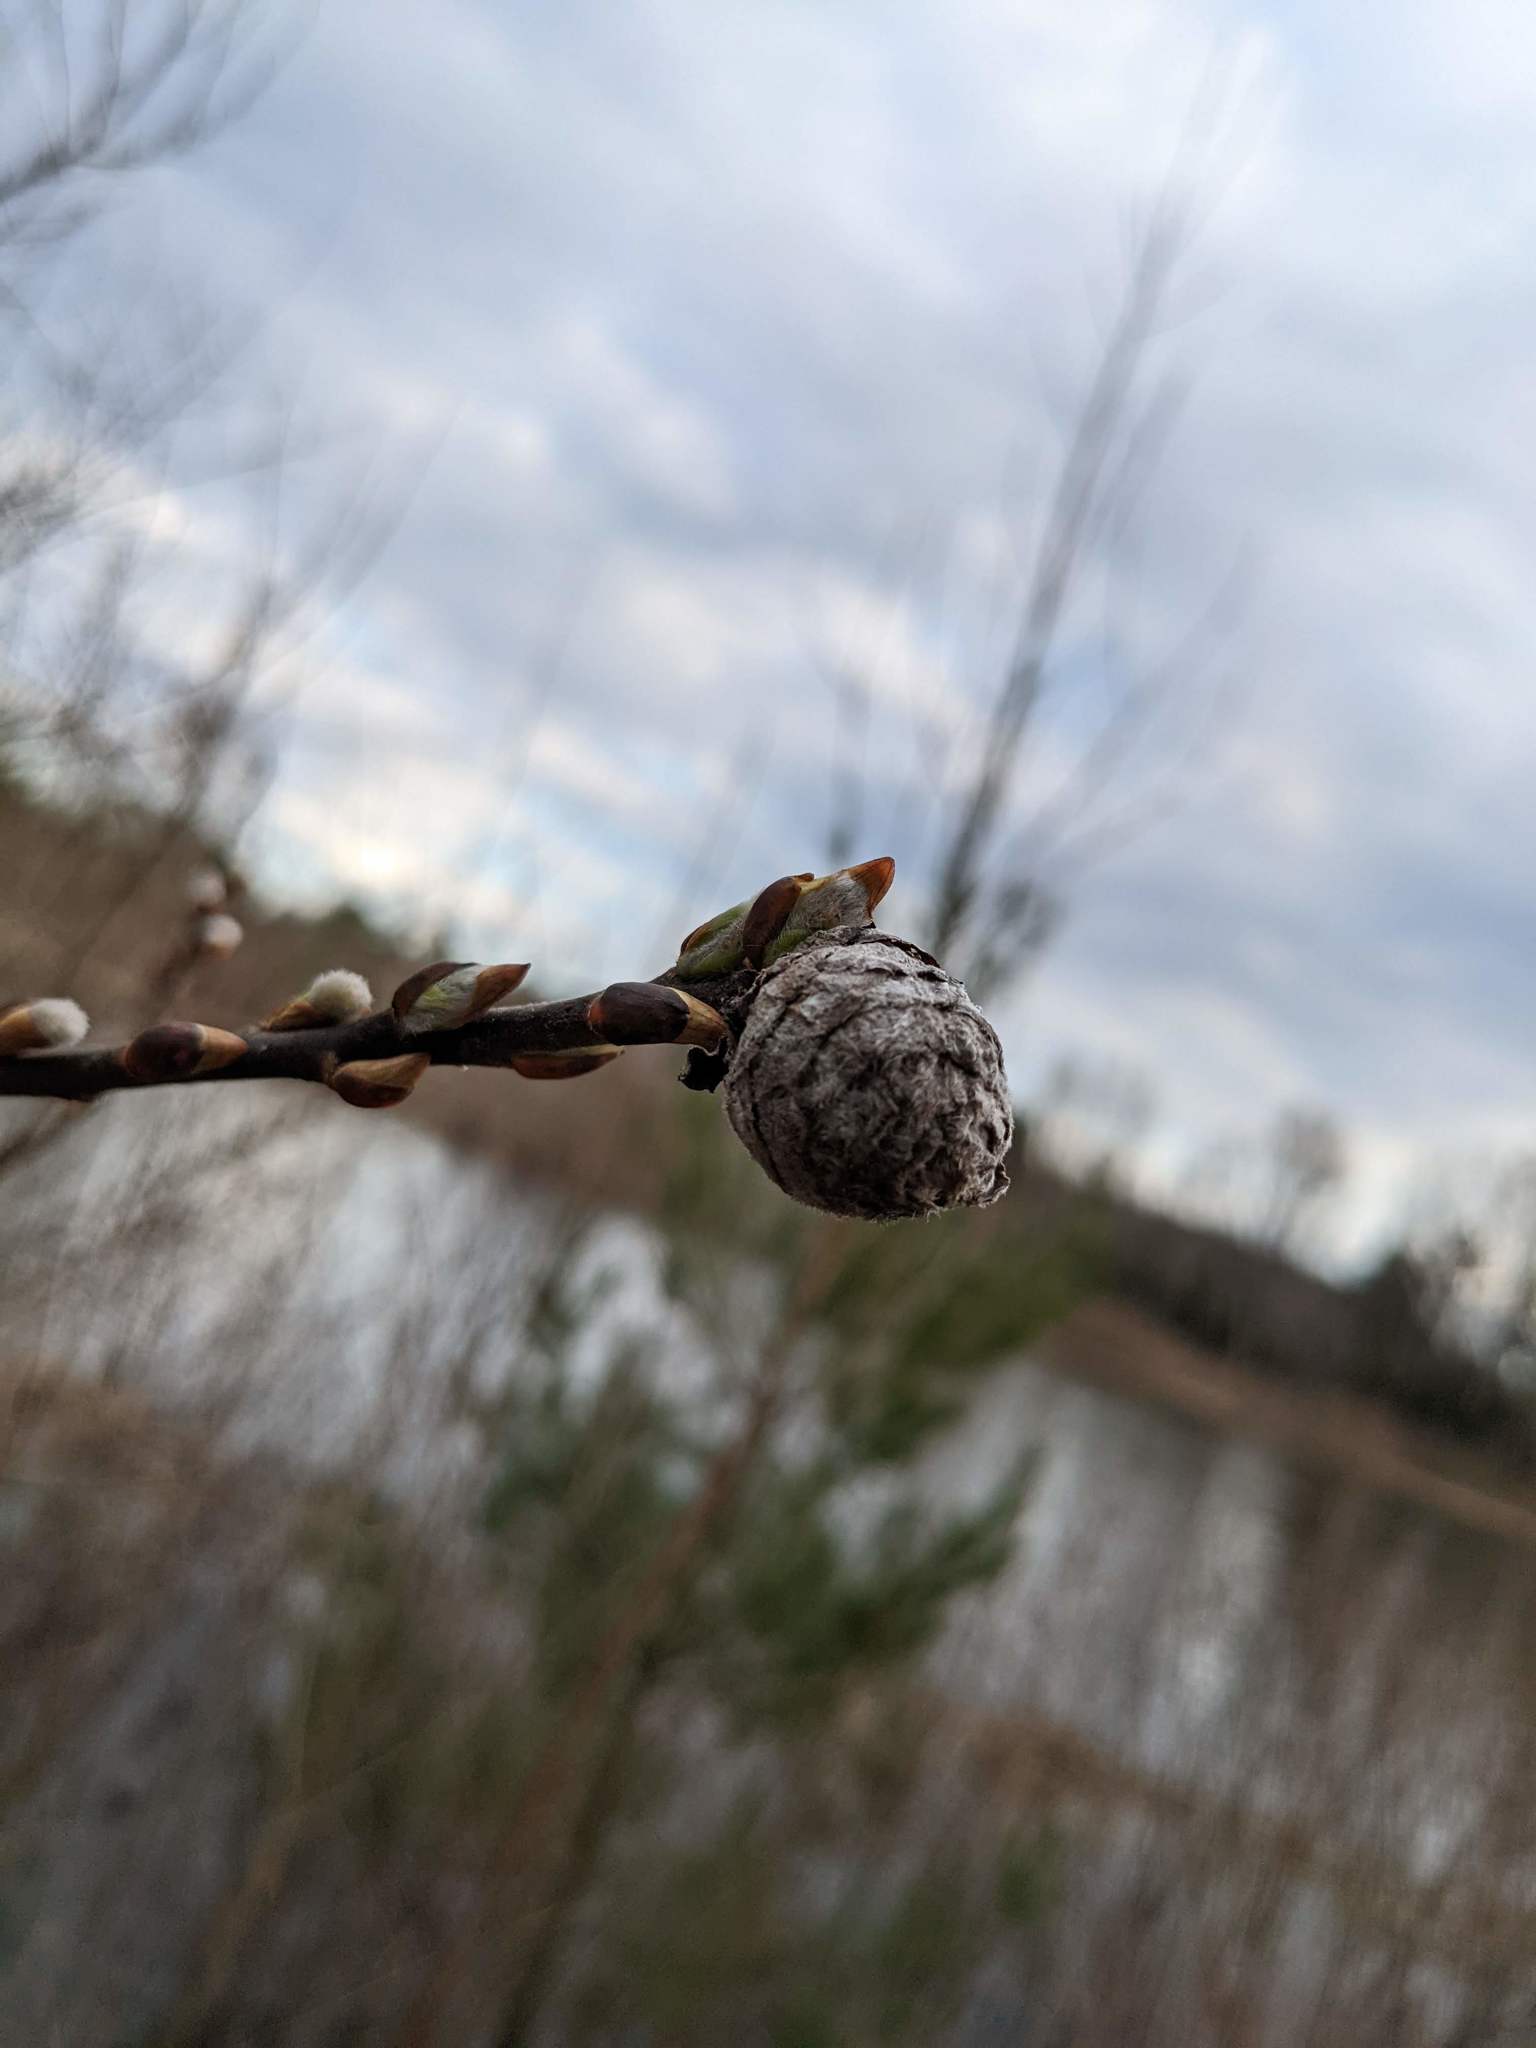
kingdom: Animalia
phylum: Arthropoda
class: Insecta
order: Diptera
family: Cecidomyiidae
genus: Rabdophaga
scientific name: Rabdophaga strobiloides
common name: Willow pinecone gall midge
